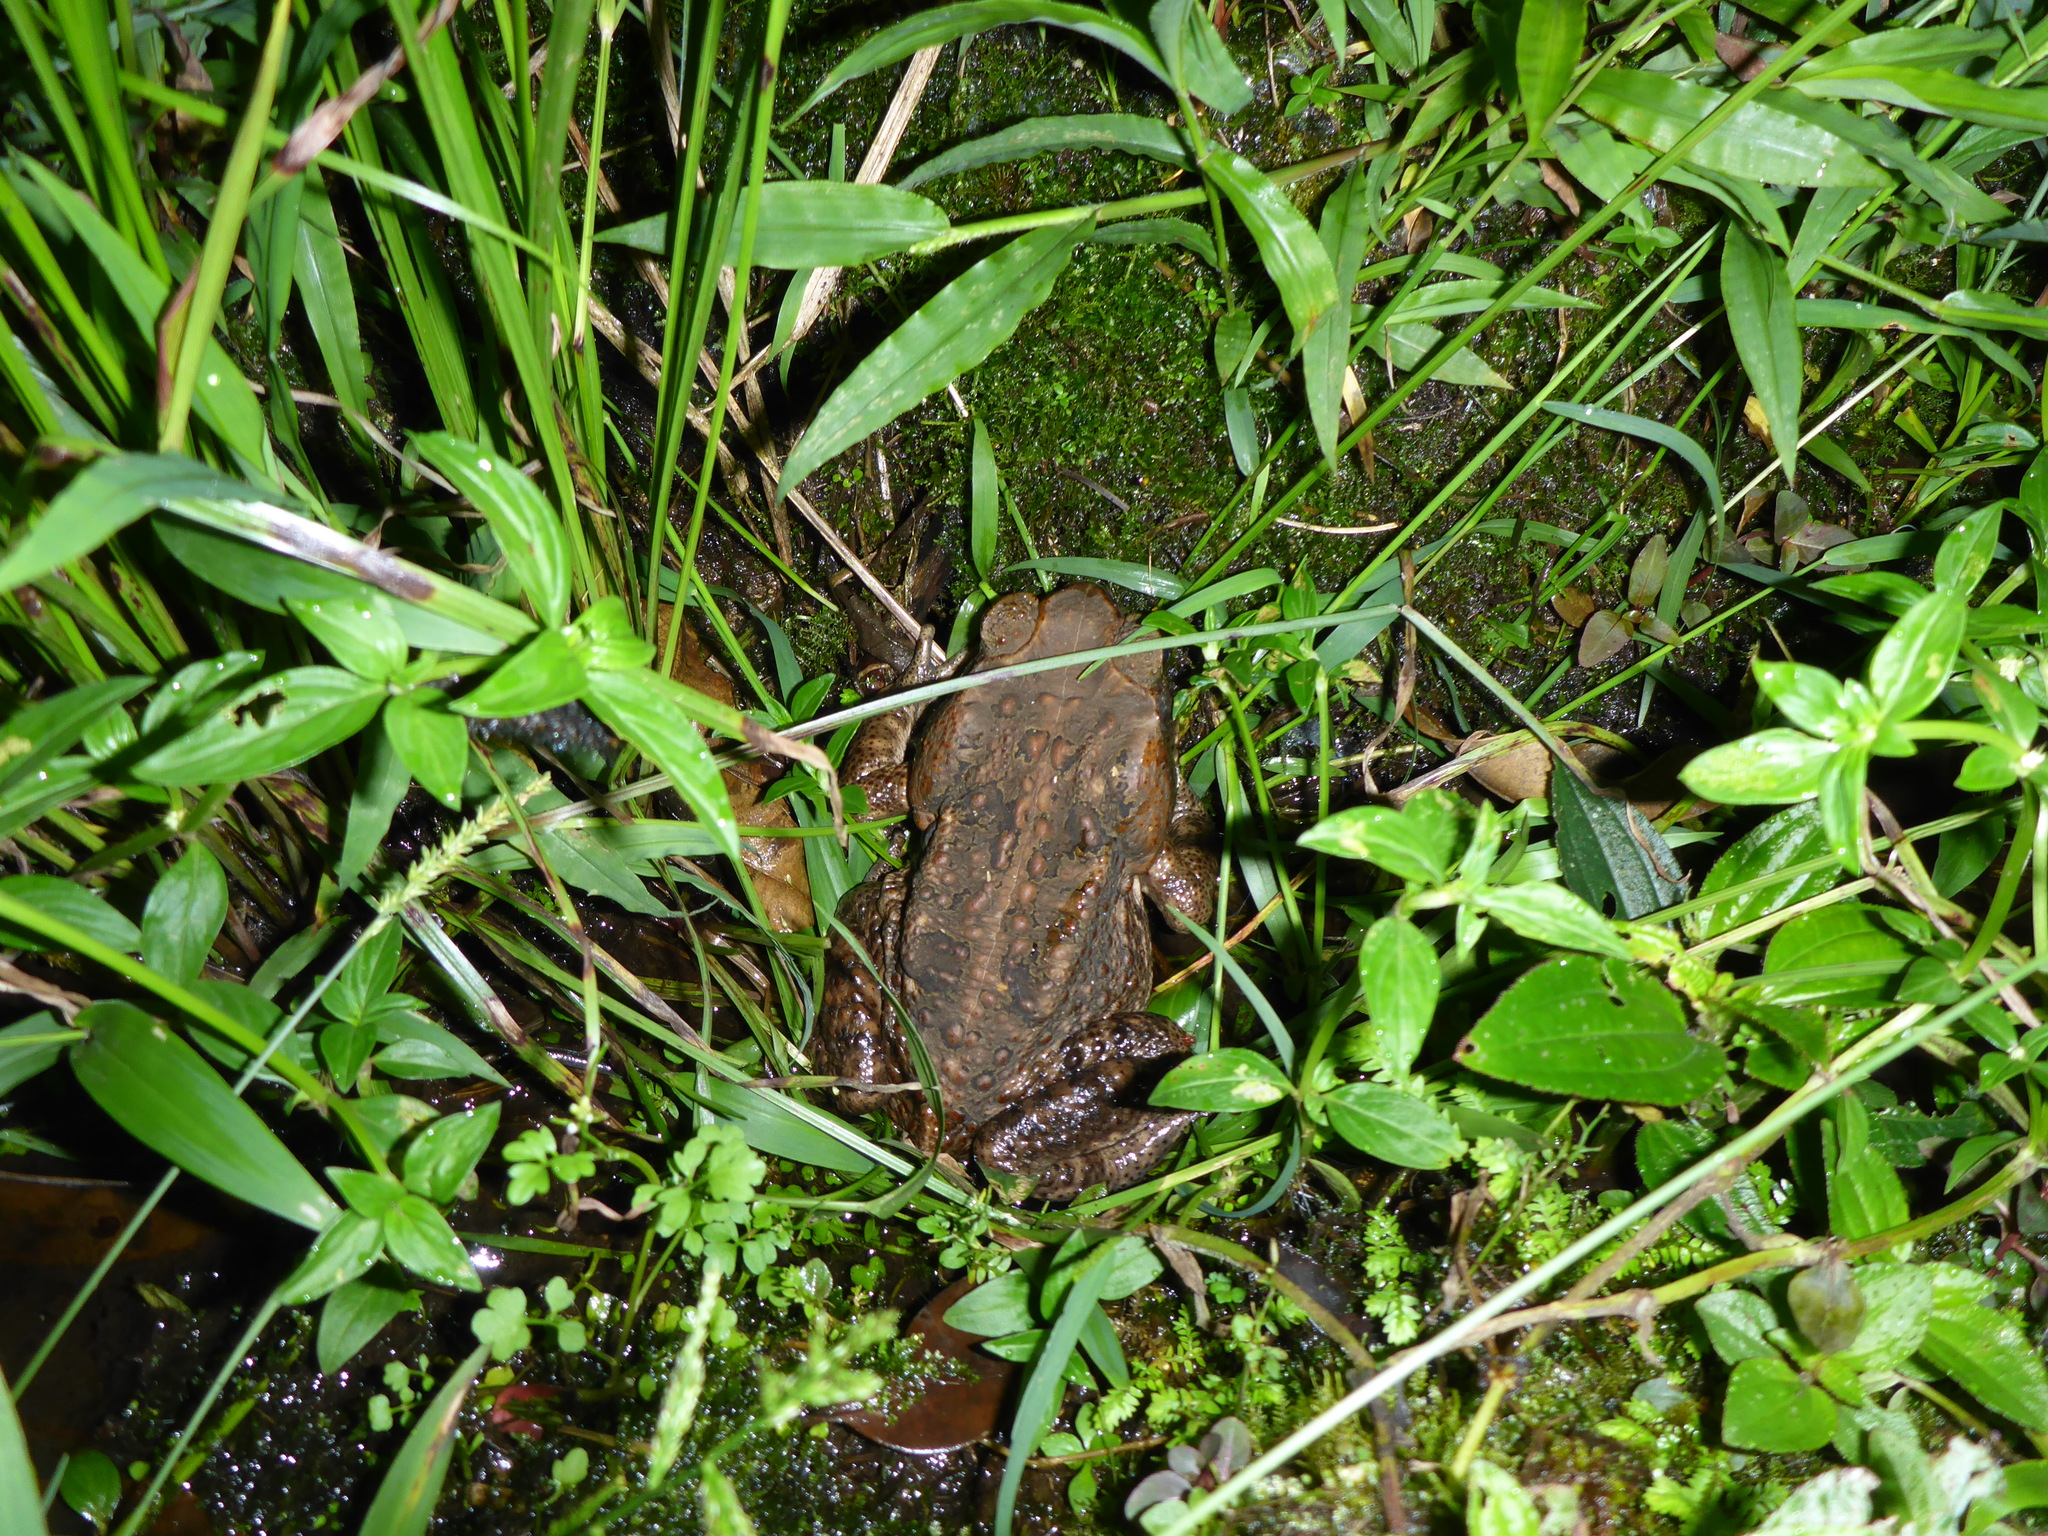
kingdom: Animalia
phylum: Chordata
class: Amphibia
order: Anura
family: Bufonidae
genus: Rhinella
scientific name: Rhinella marina
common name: Cane toad
